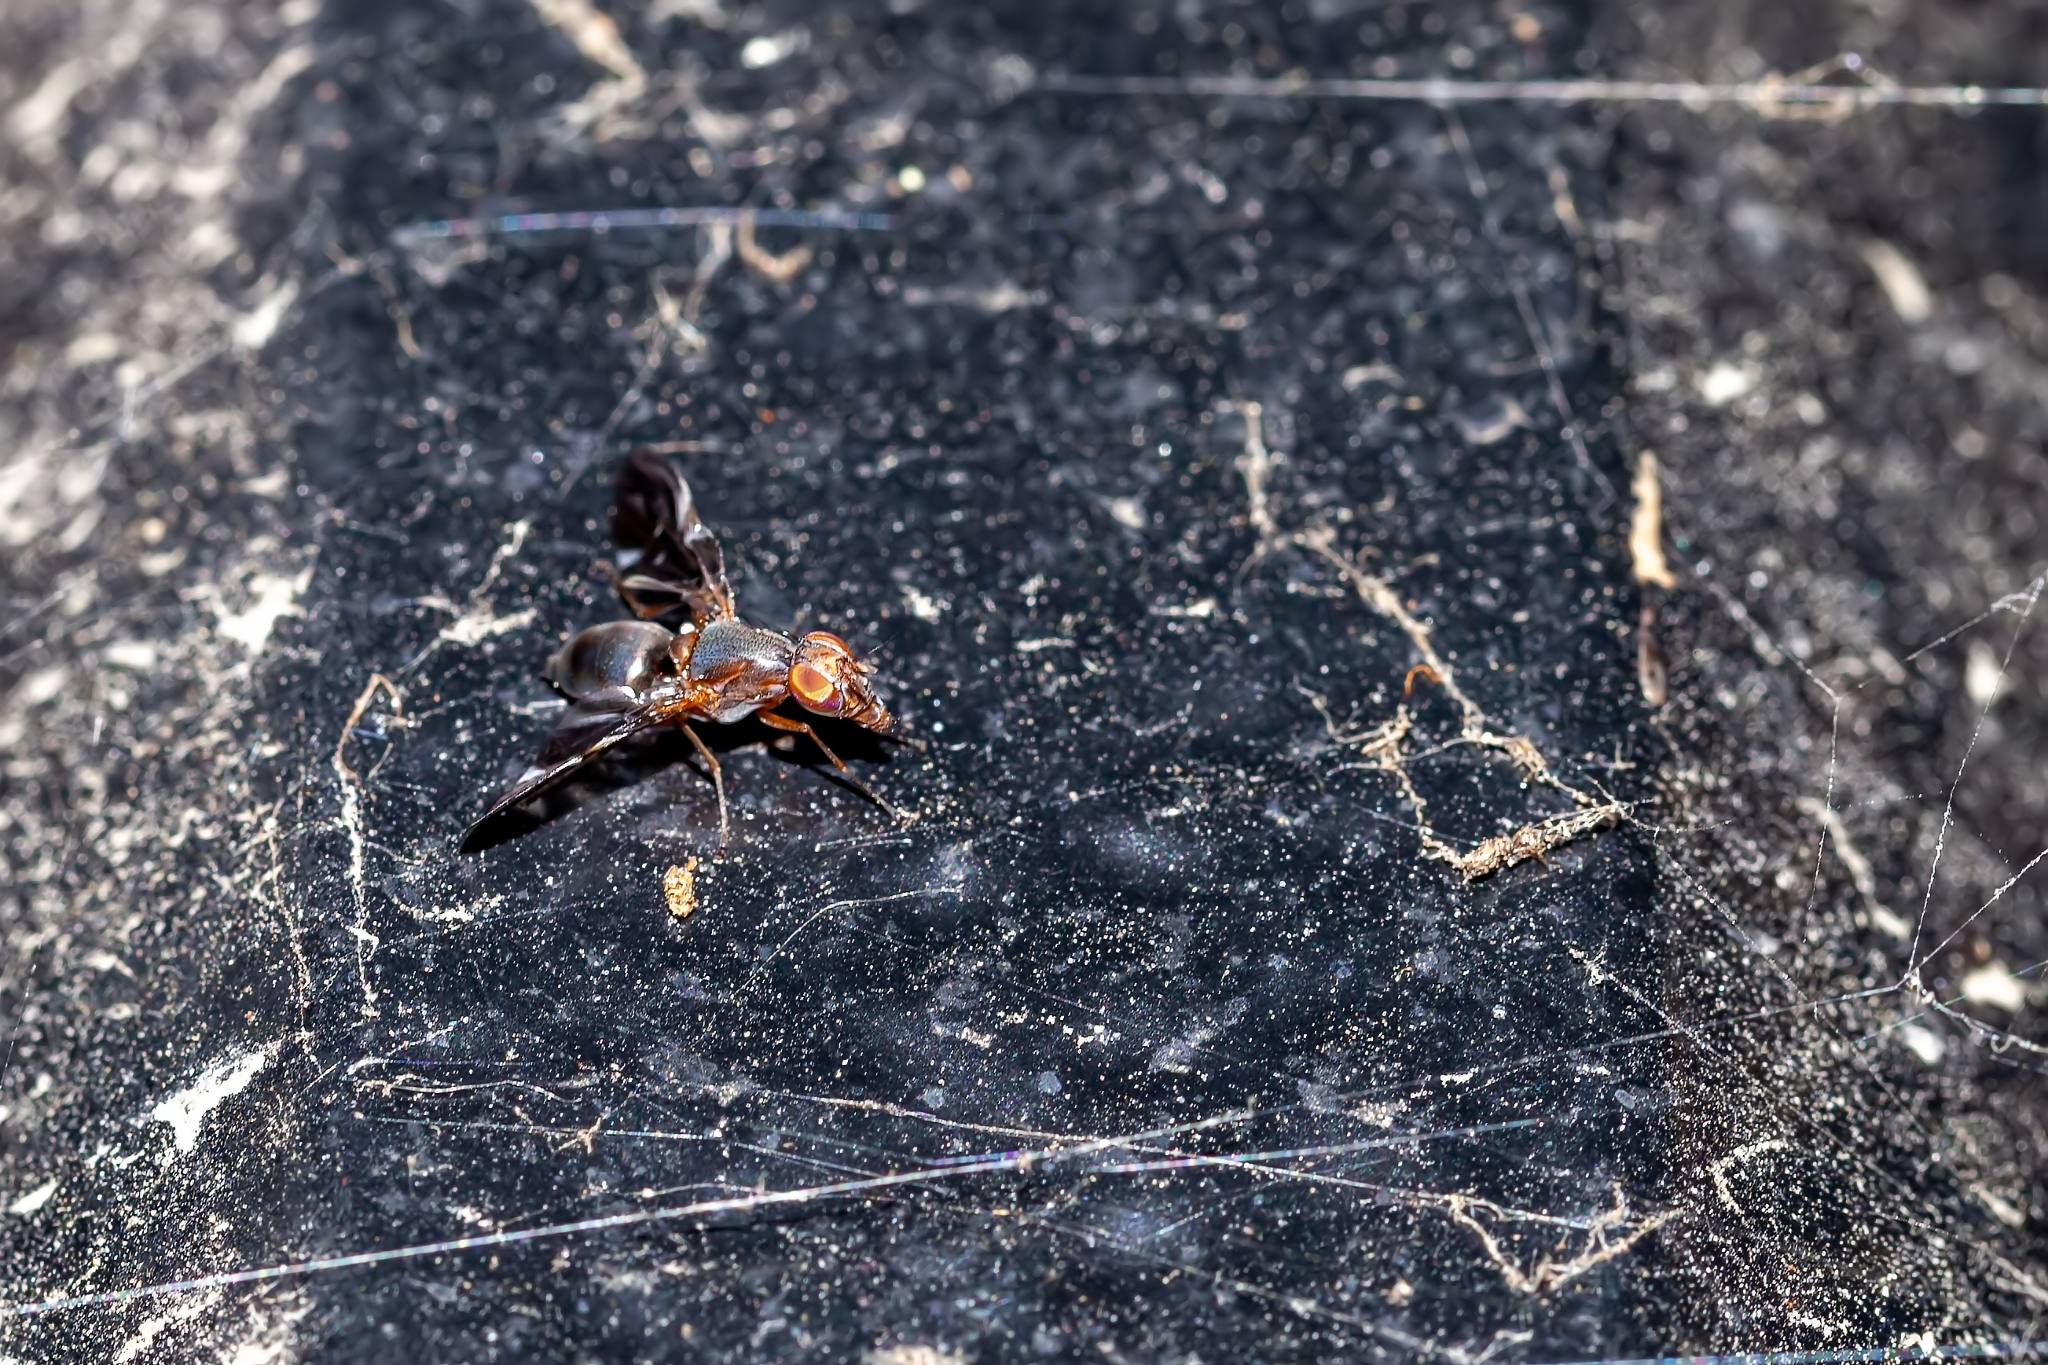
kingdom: Animalia
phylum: Arthropoda
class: Insecta
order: Diptera
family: Ulidiidae
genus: Delphinia
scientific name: Delphinia picta
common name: Common picture-winged fly
